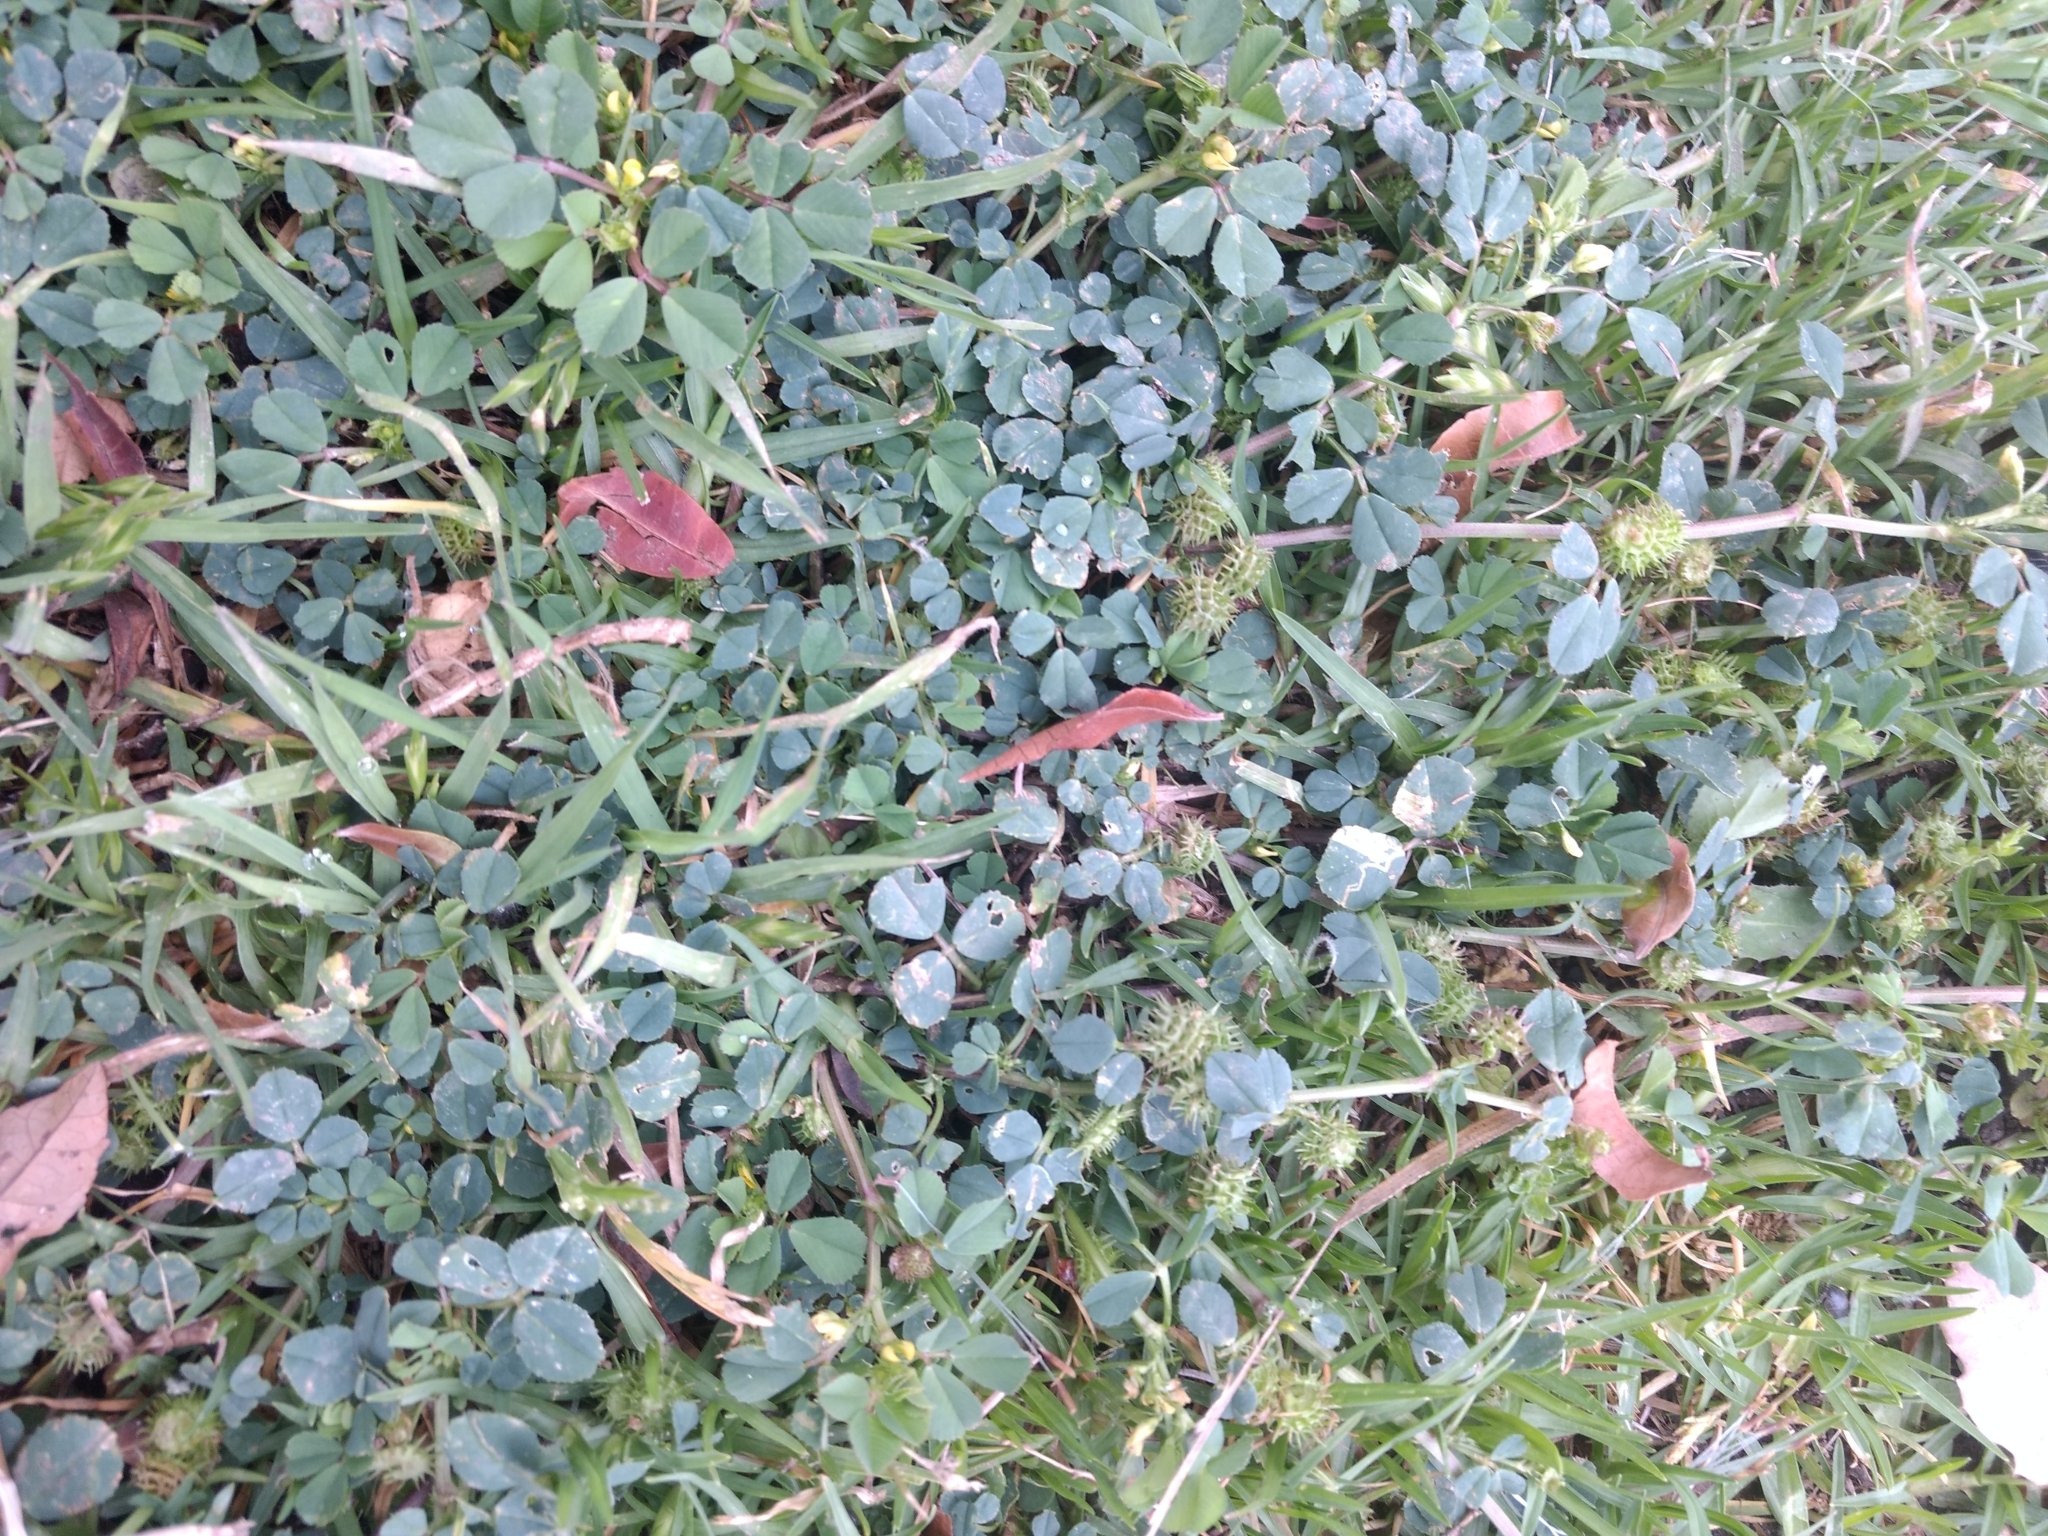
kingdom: Plantae
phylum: Tracheophyta
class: Magnoliopsida
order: Fabales
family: Fabaceae
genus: Medicago
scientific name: Medicago polymorpha
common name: Burclover
